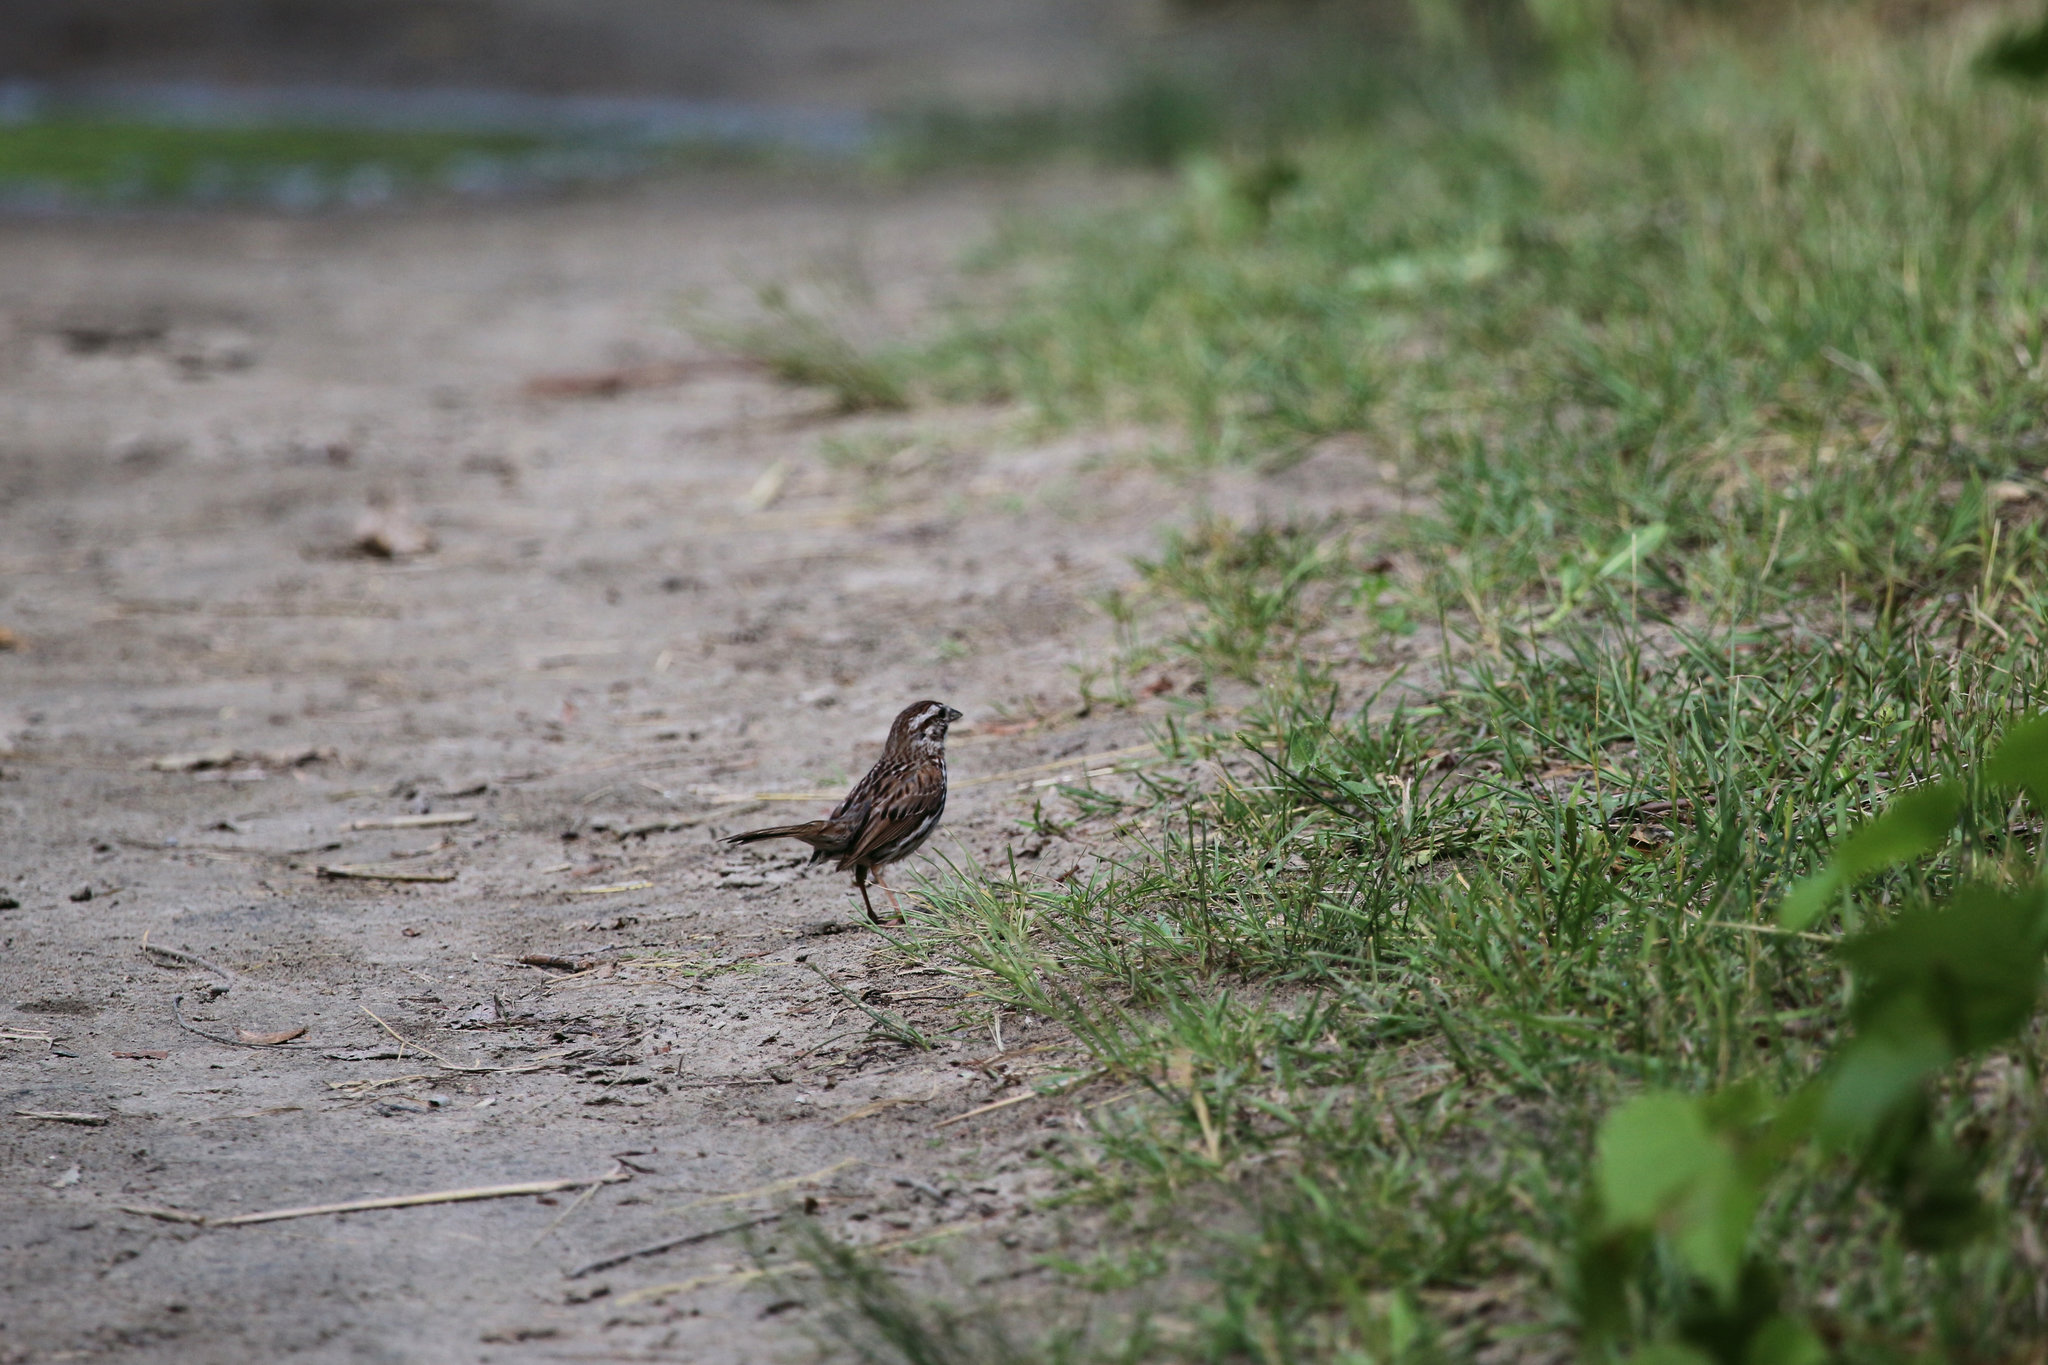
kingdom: Animalia
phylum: Chordata
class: Aves
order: Passeriformes
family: Passerellidae
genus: Melospiza
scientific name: Melospiza melodia
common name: Song sparrow
